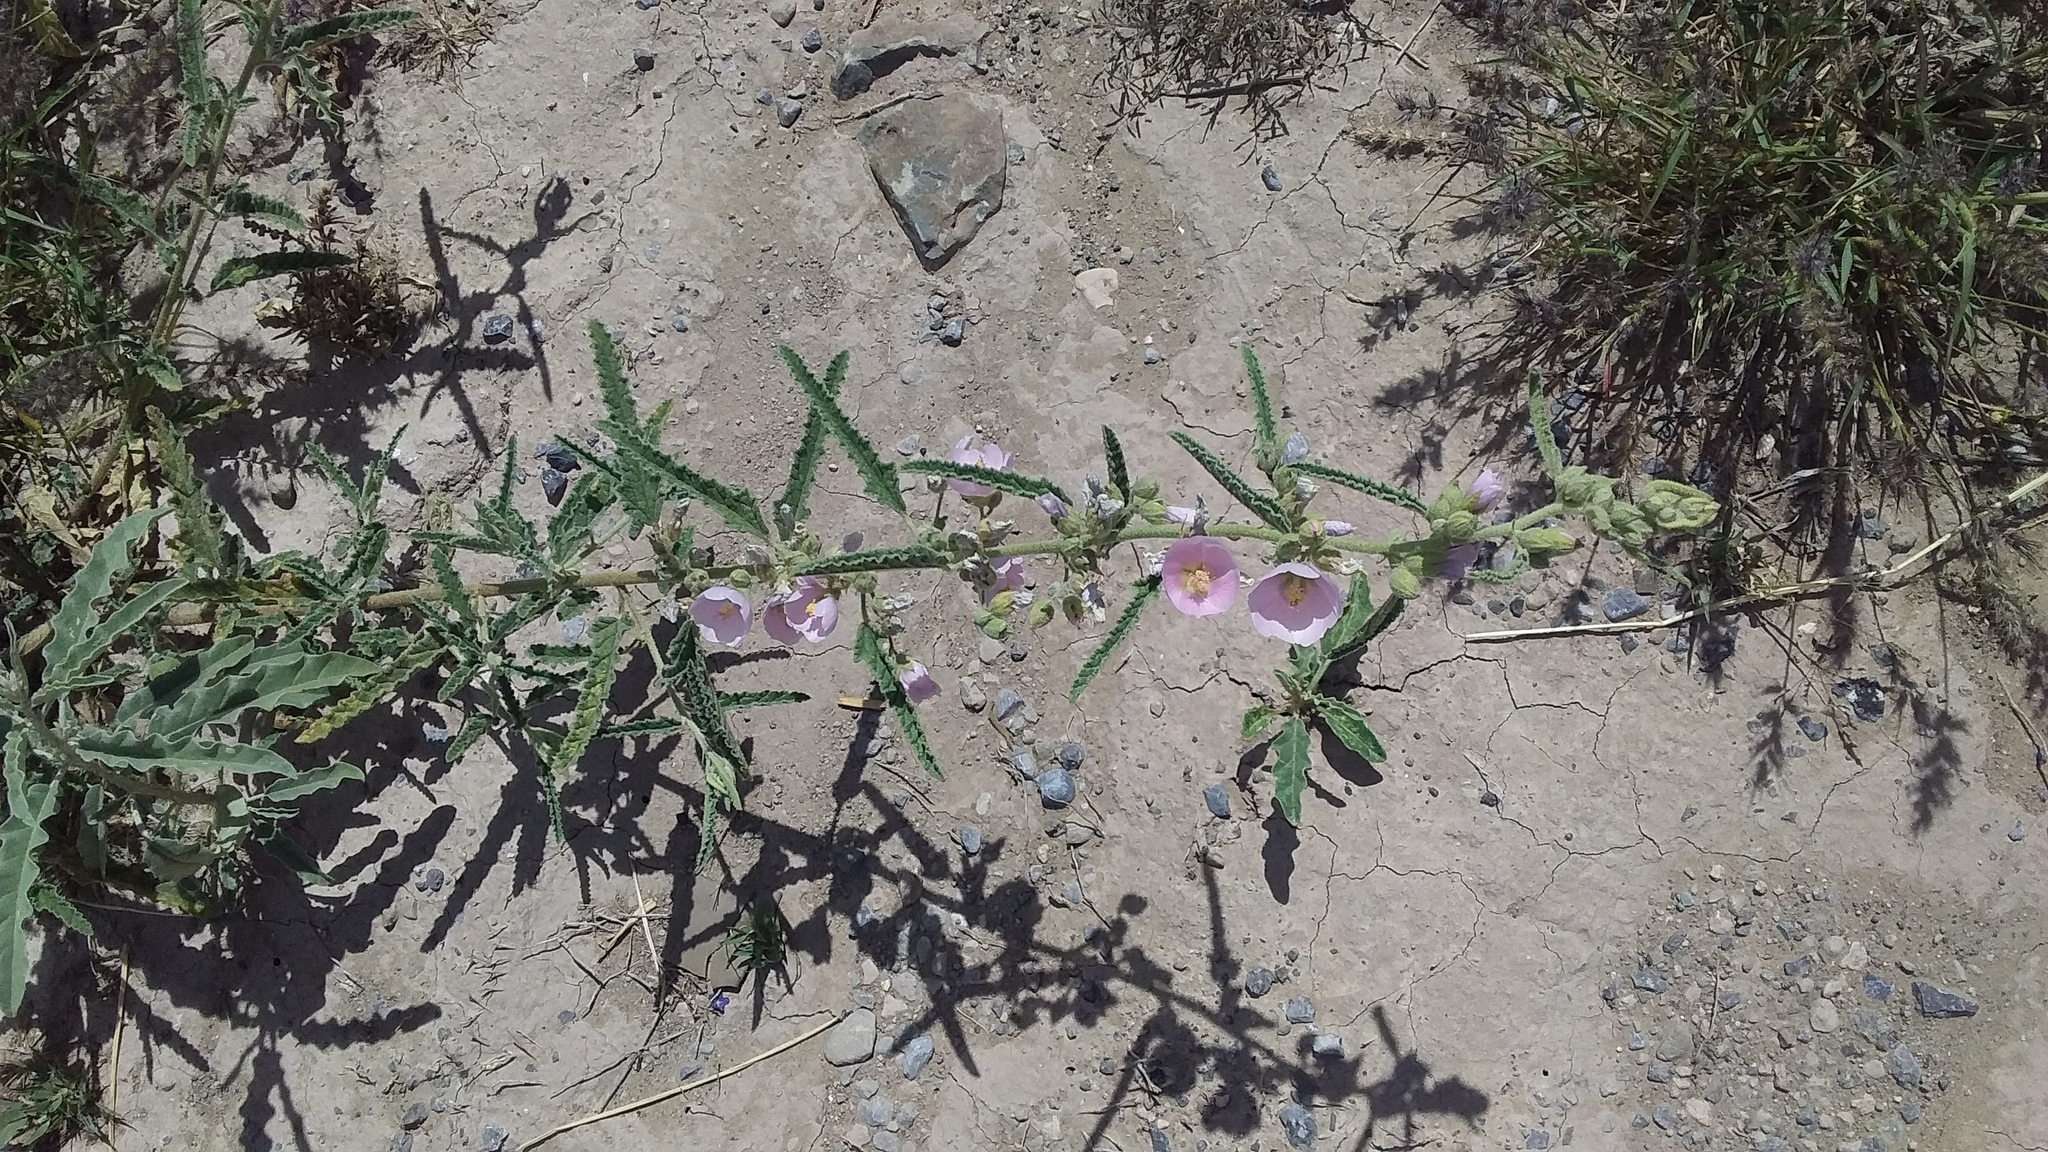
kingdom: Plantae
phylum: Tracheophyta
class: Magnoliopsida
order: Malvales
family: Malvaceae
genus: Sphaeralcea
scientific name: Sphaeralcea angustifolia
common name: Copper globe-mallow
